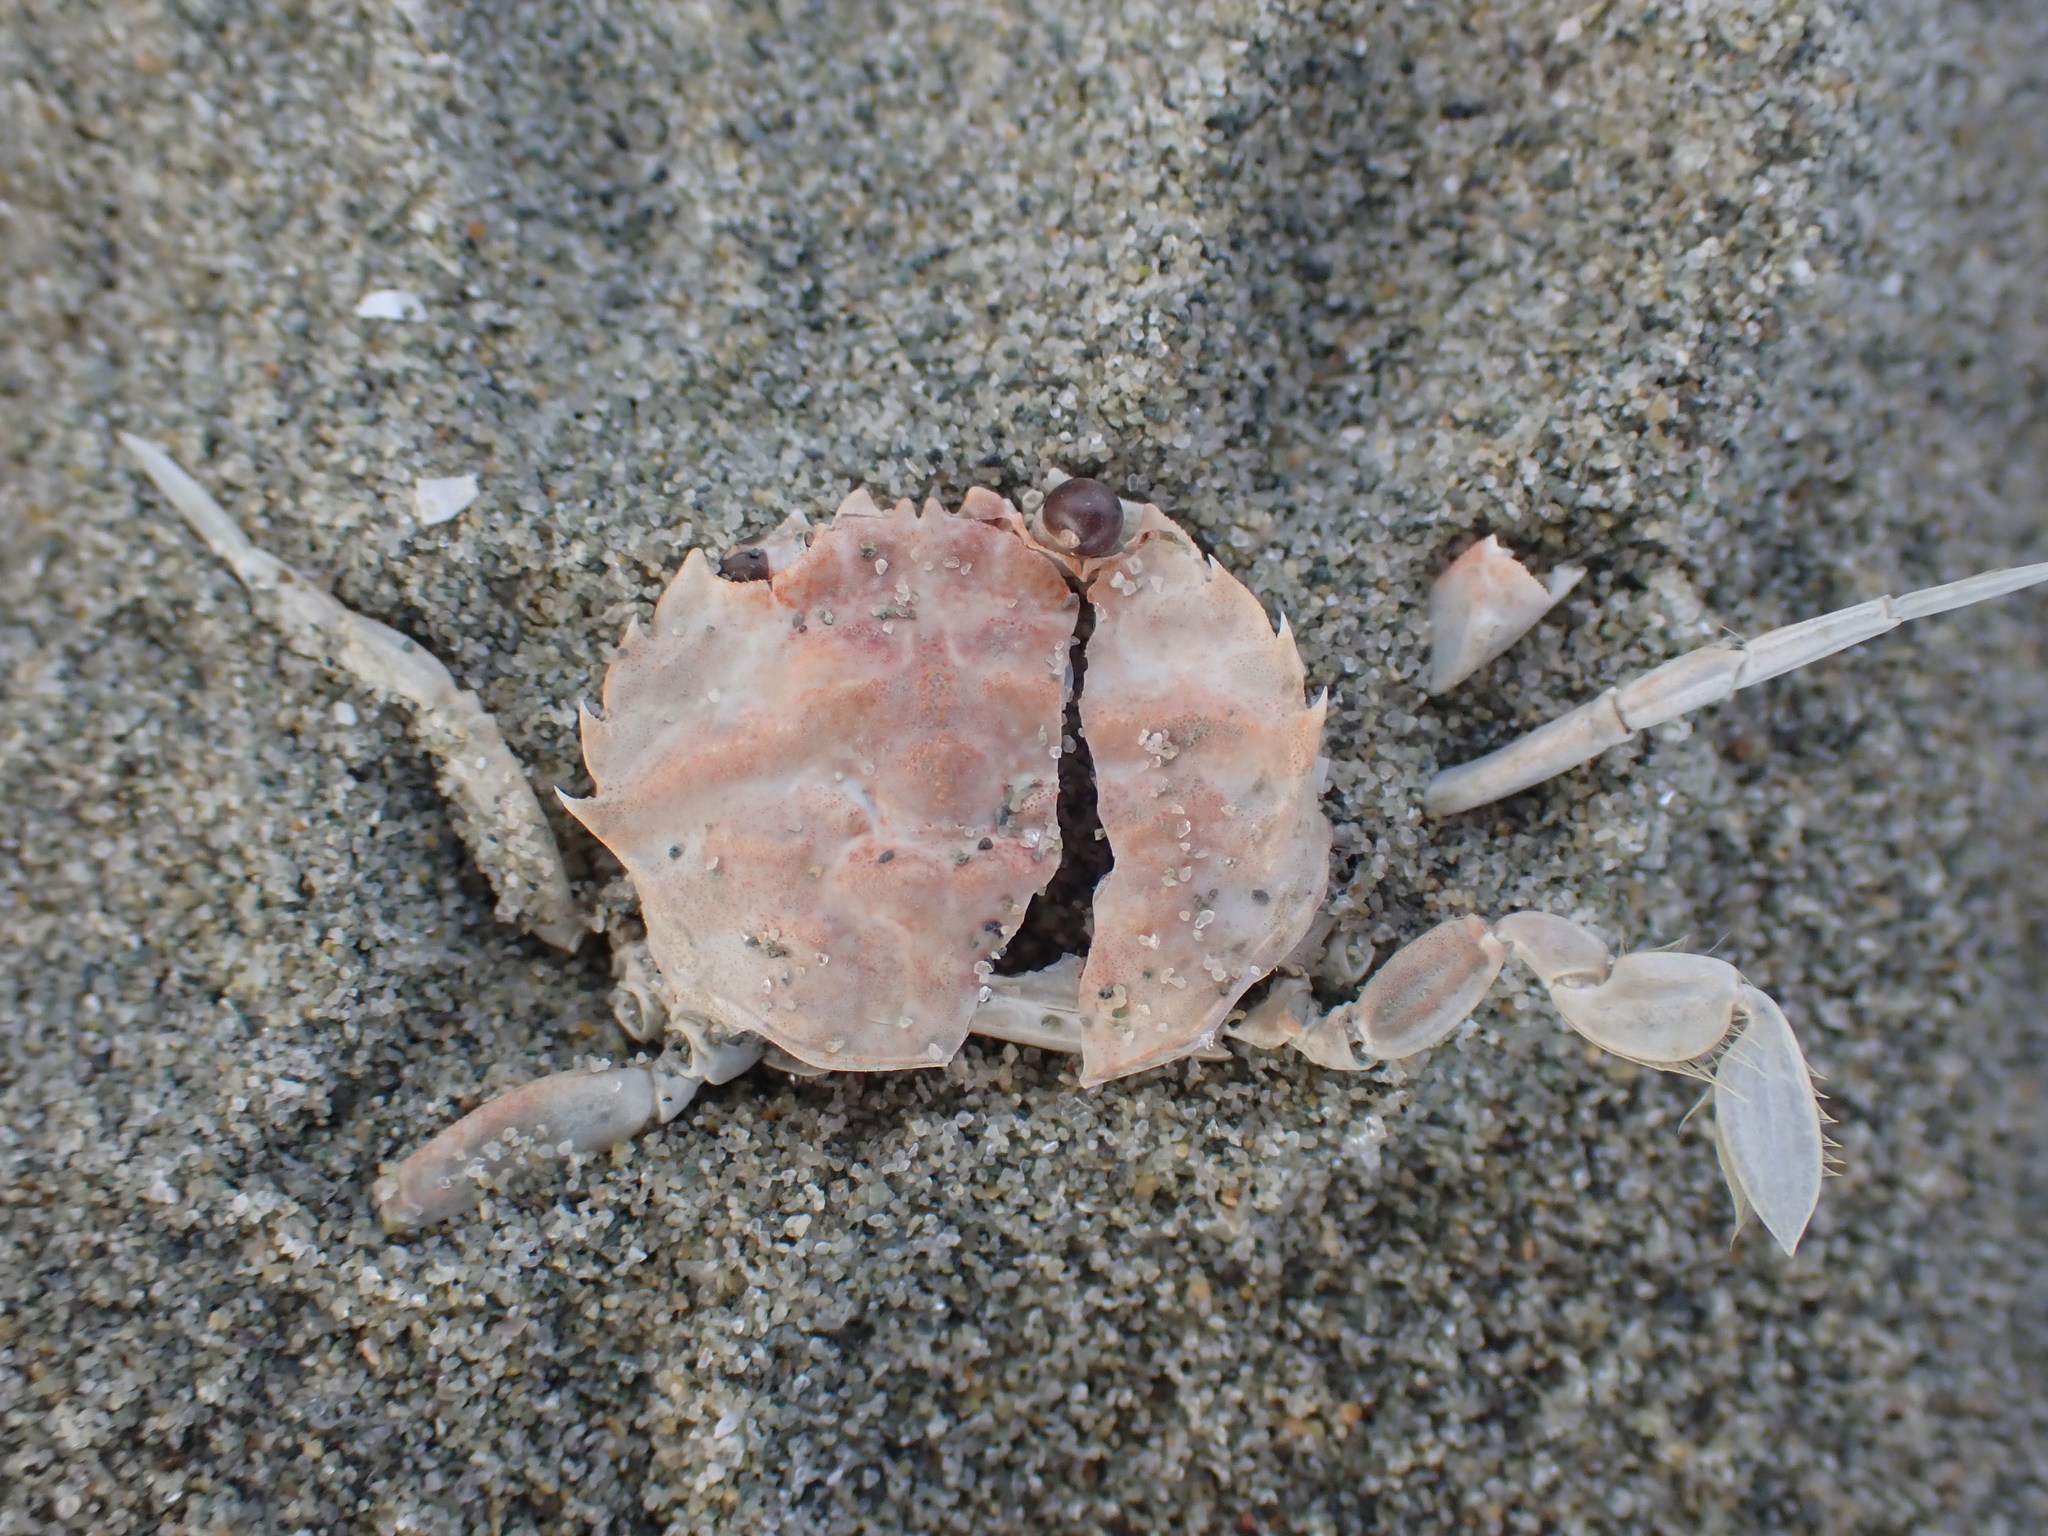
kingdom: Animalia
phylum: Arthropoda
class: Malacostraca
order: Decapoda
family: Geryonidae
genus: Nectocarcinus
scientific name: Nectocarcinus antarcticus
